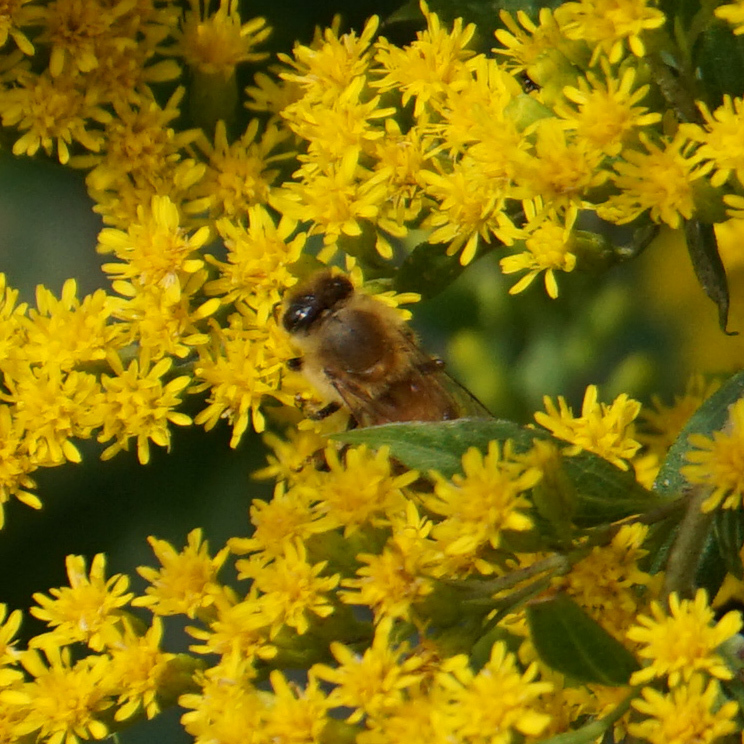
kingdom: Animalia
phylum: Arthropoda
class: Insecta
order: Hymenoptera
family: Apidae
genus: Apis
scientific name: Apis mellifera
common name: Honey bee
